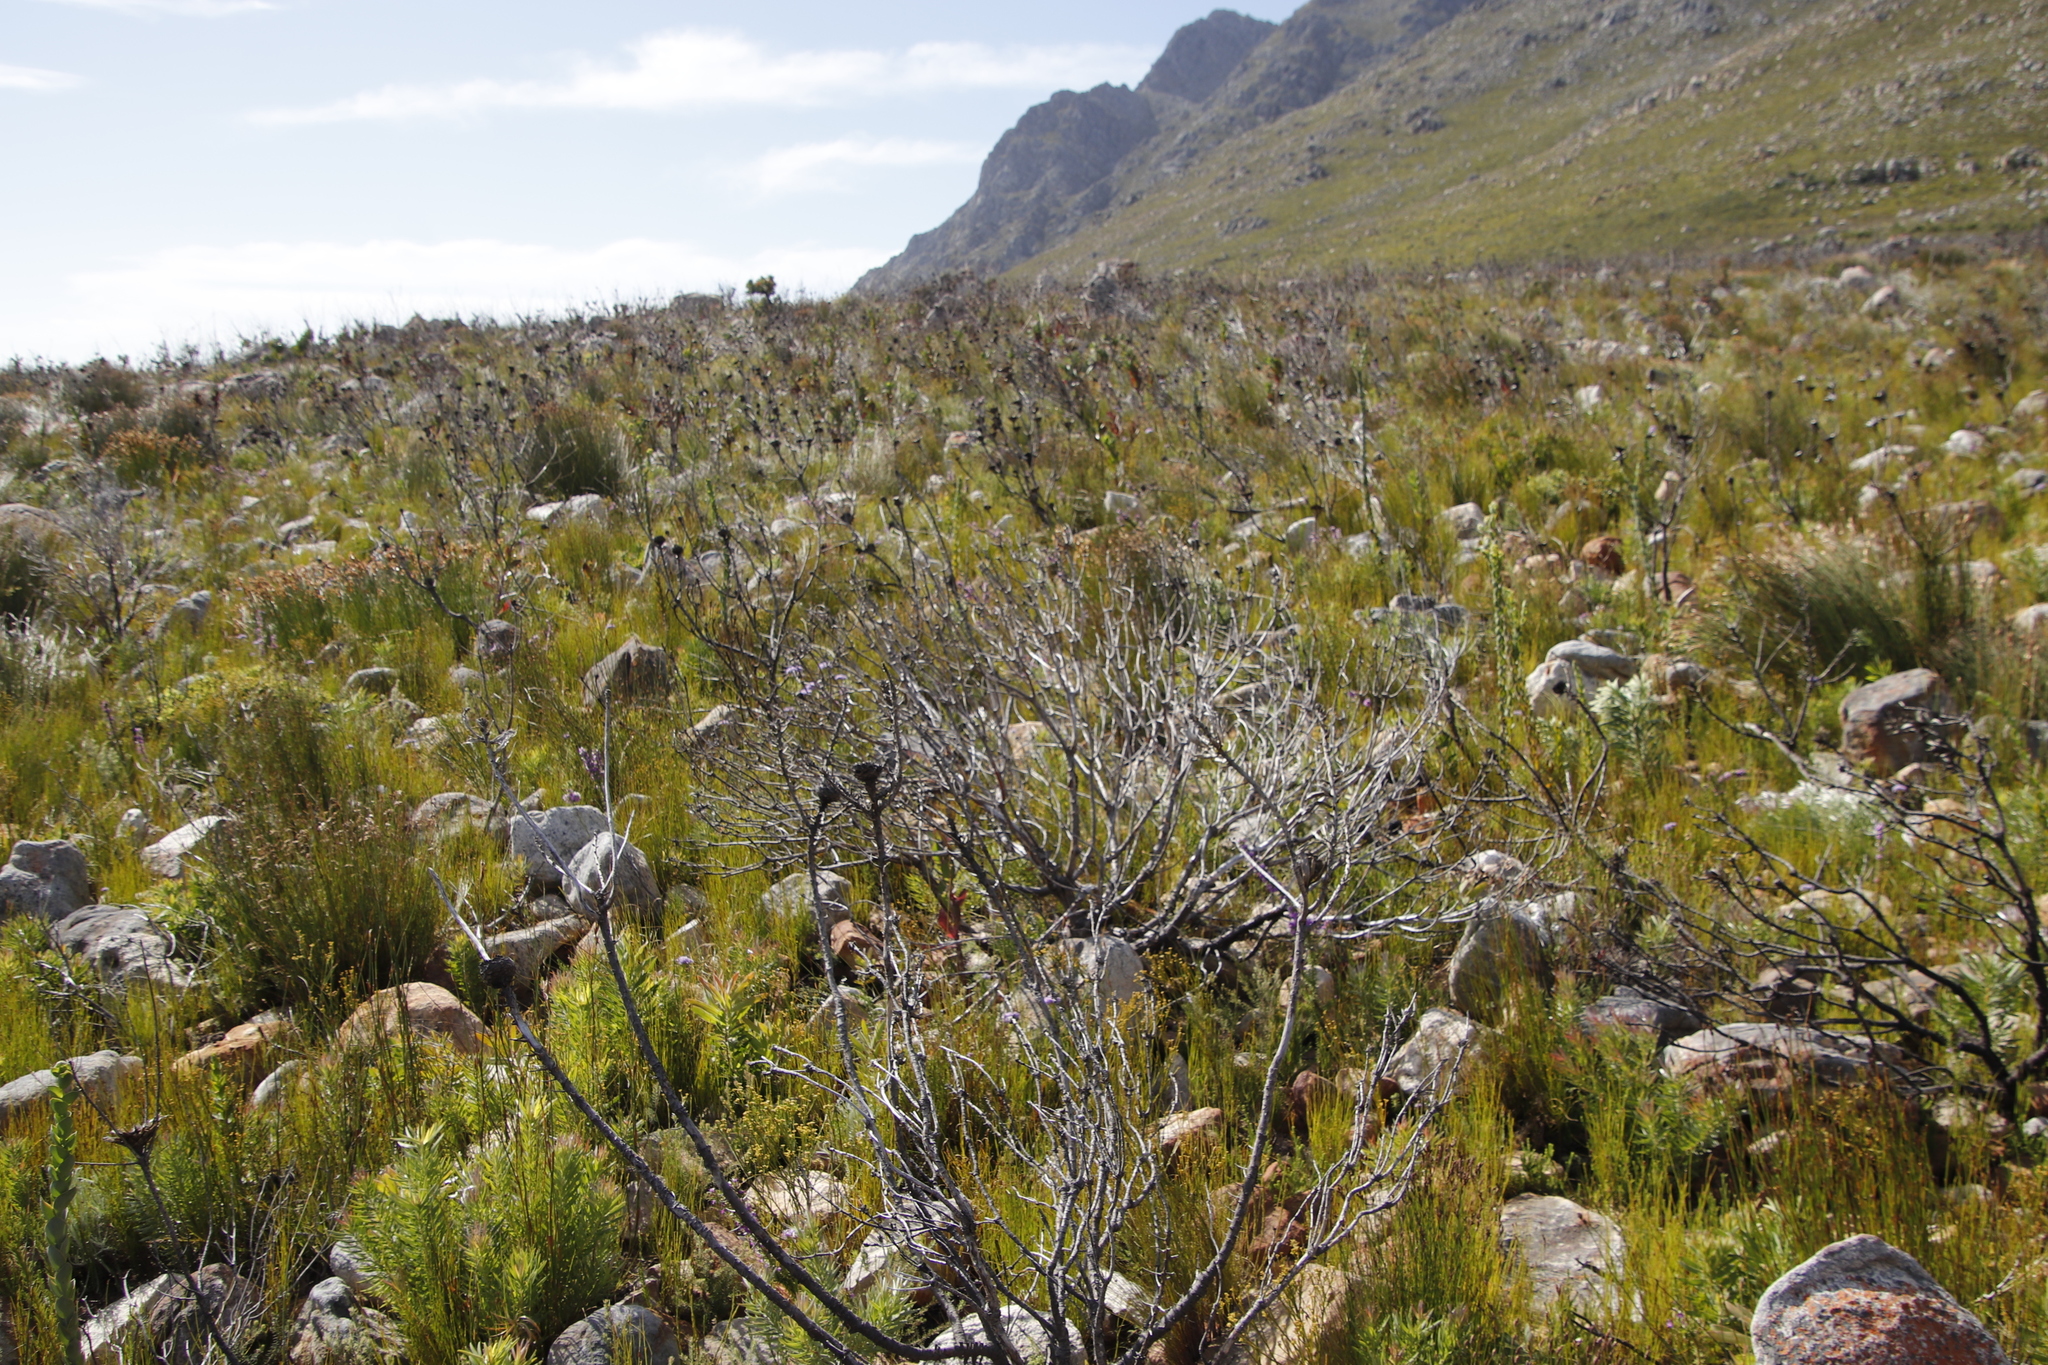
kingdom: Plantae
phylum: Tracheophyta
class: Magnoliopsida
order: Proteales
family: Proteaceae
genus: Protea
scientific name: Protea repens
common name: Sugarbush
